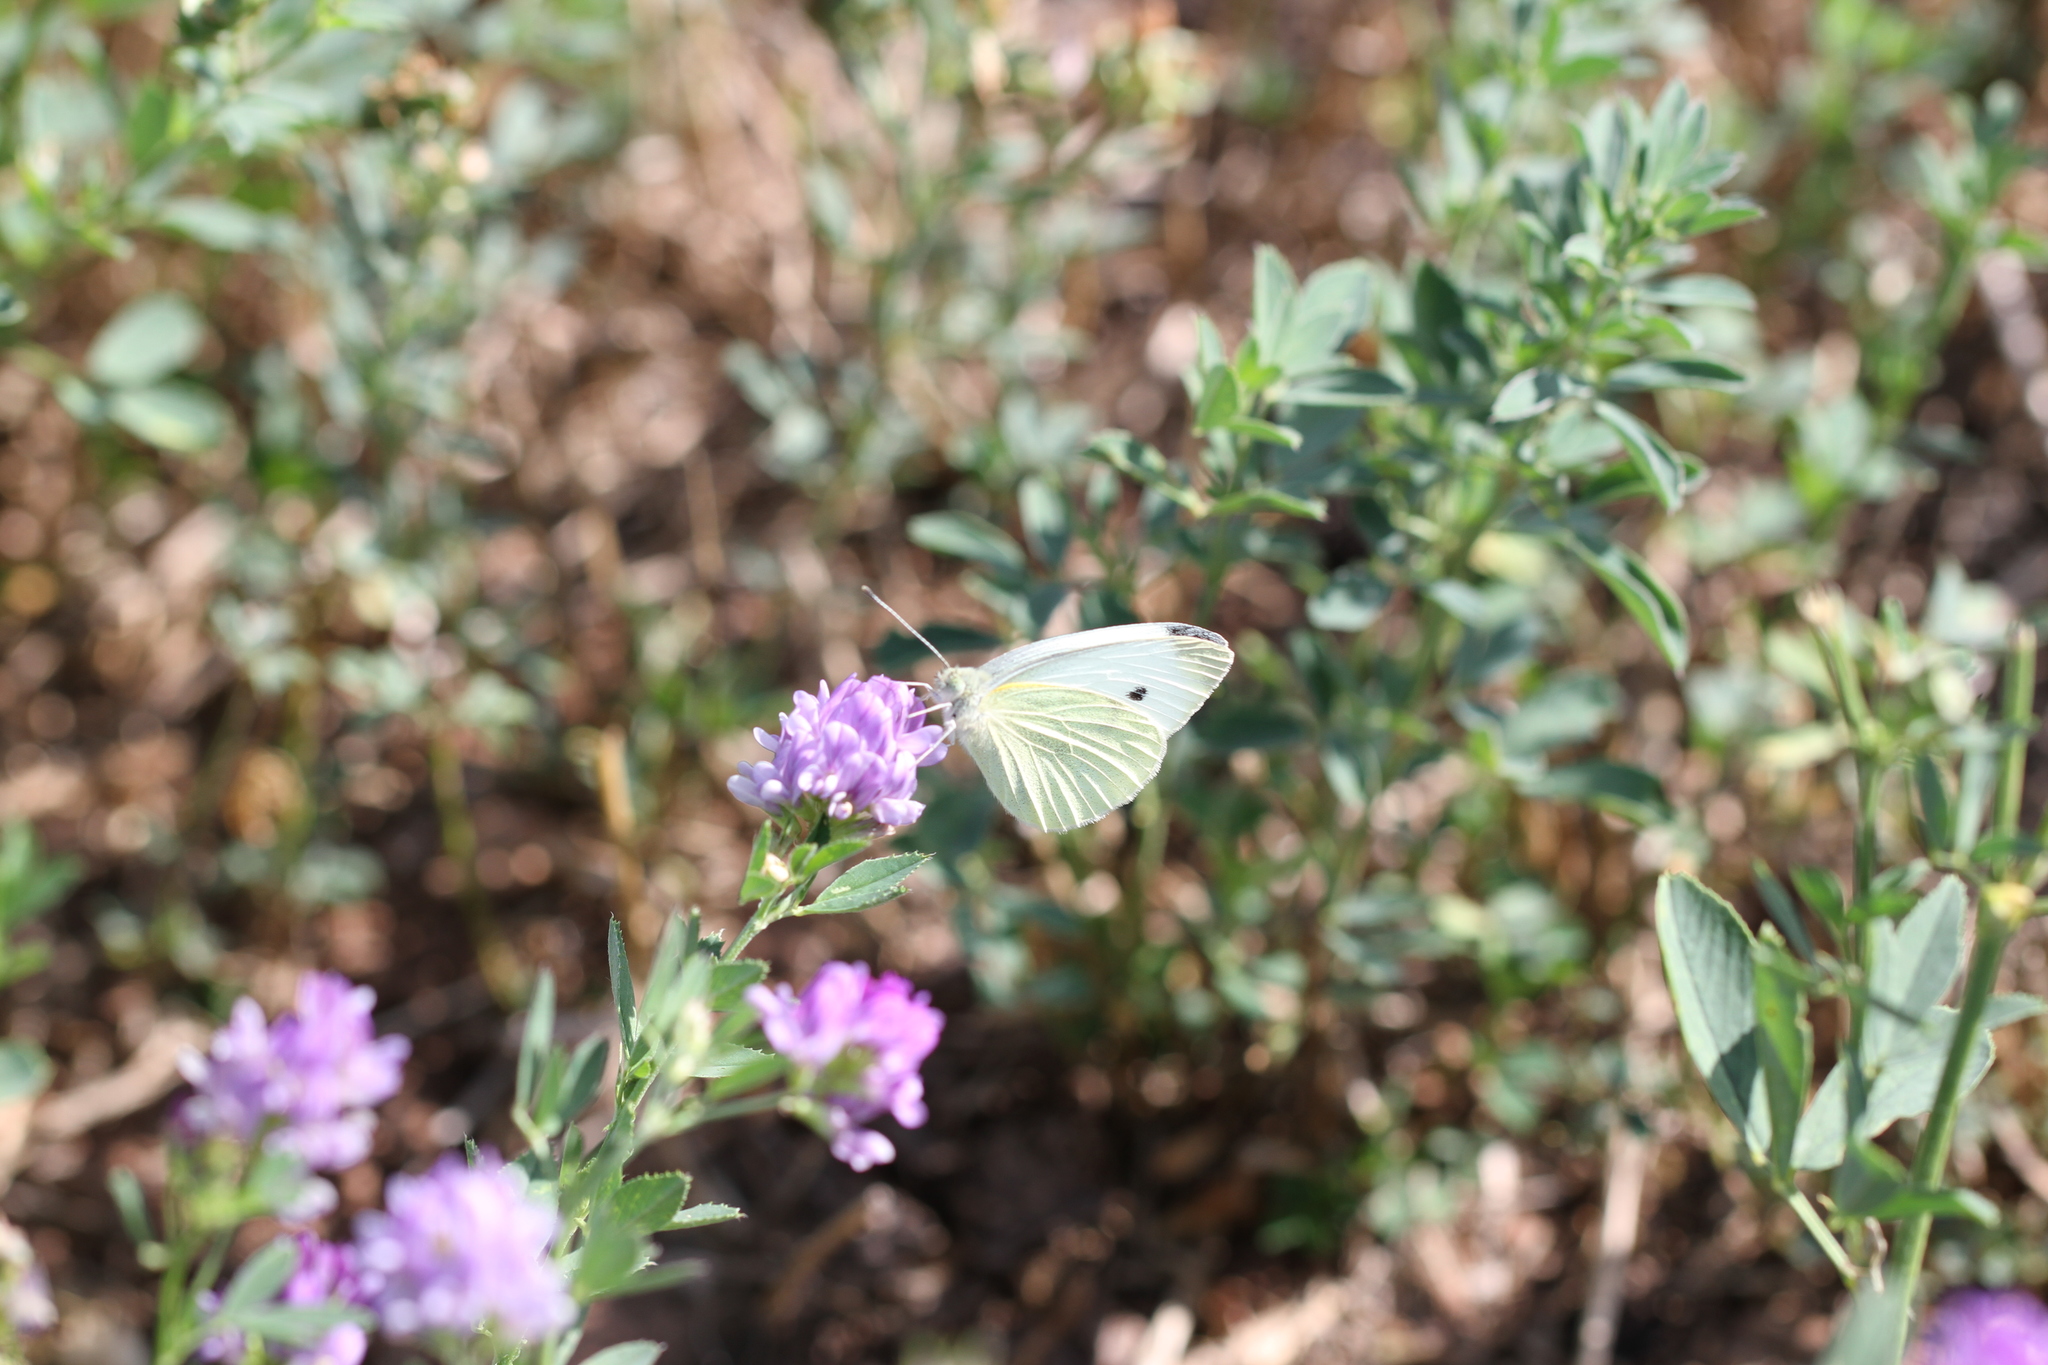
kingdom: Animalia
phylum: Arthropoda
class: Insecta
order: Lepidoptera
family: Pieridae
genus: Pieris
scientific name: Pieris rapae
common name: Small white
